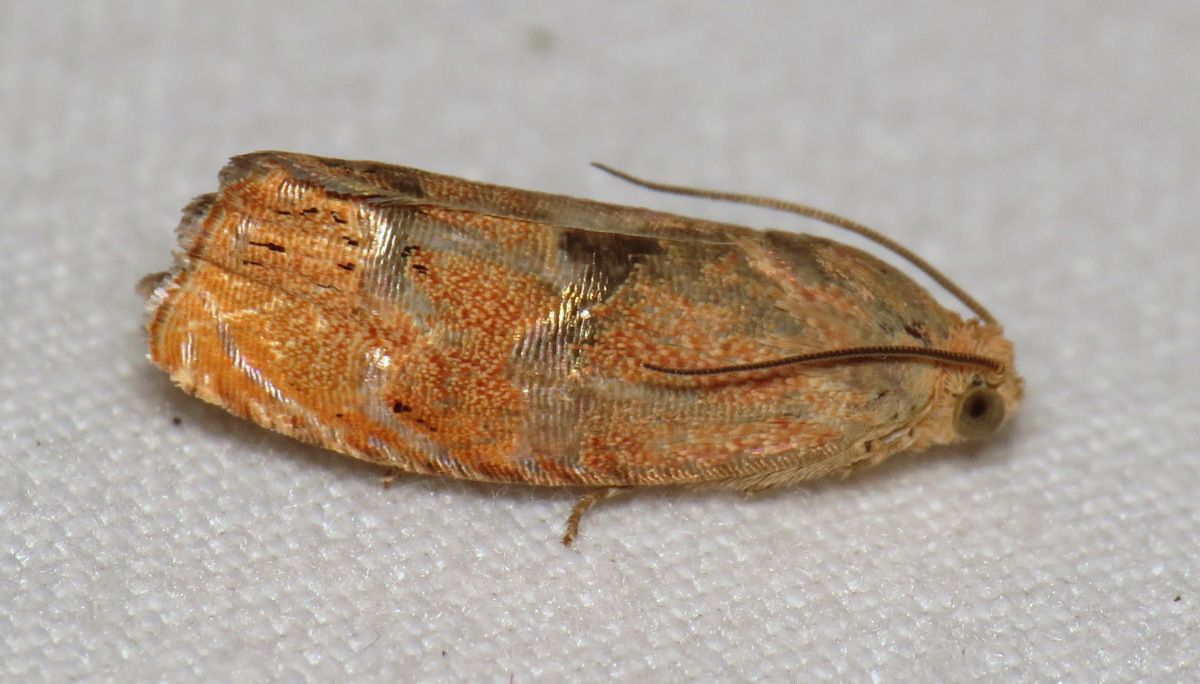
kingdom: Animalia
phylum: Arthropoda
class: Insecta
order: Lepidoptera
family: Tortricidae
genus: Cydia
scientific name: Cydia latiferreana
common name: Filbertworm moth
